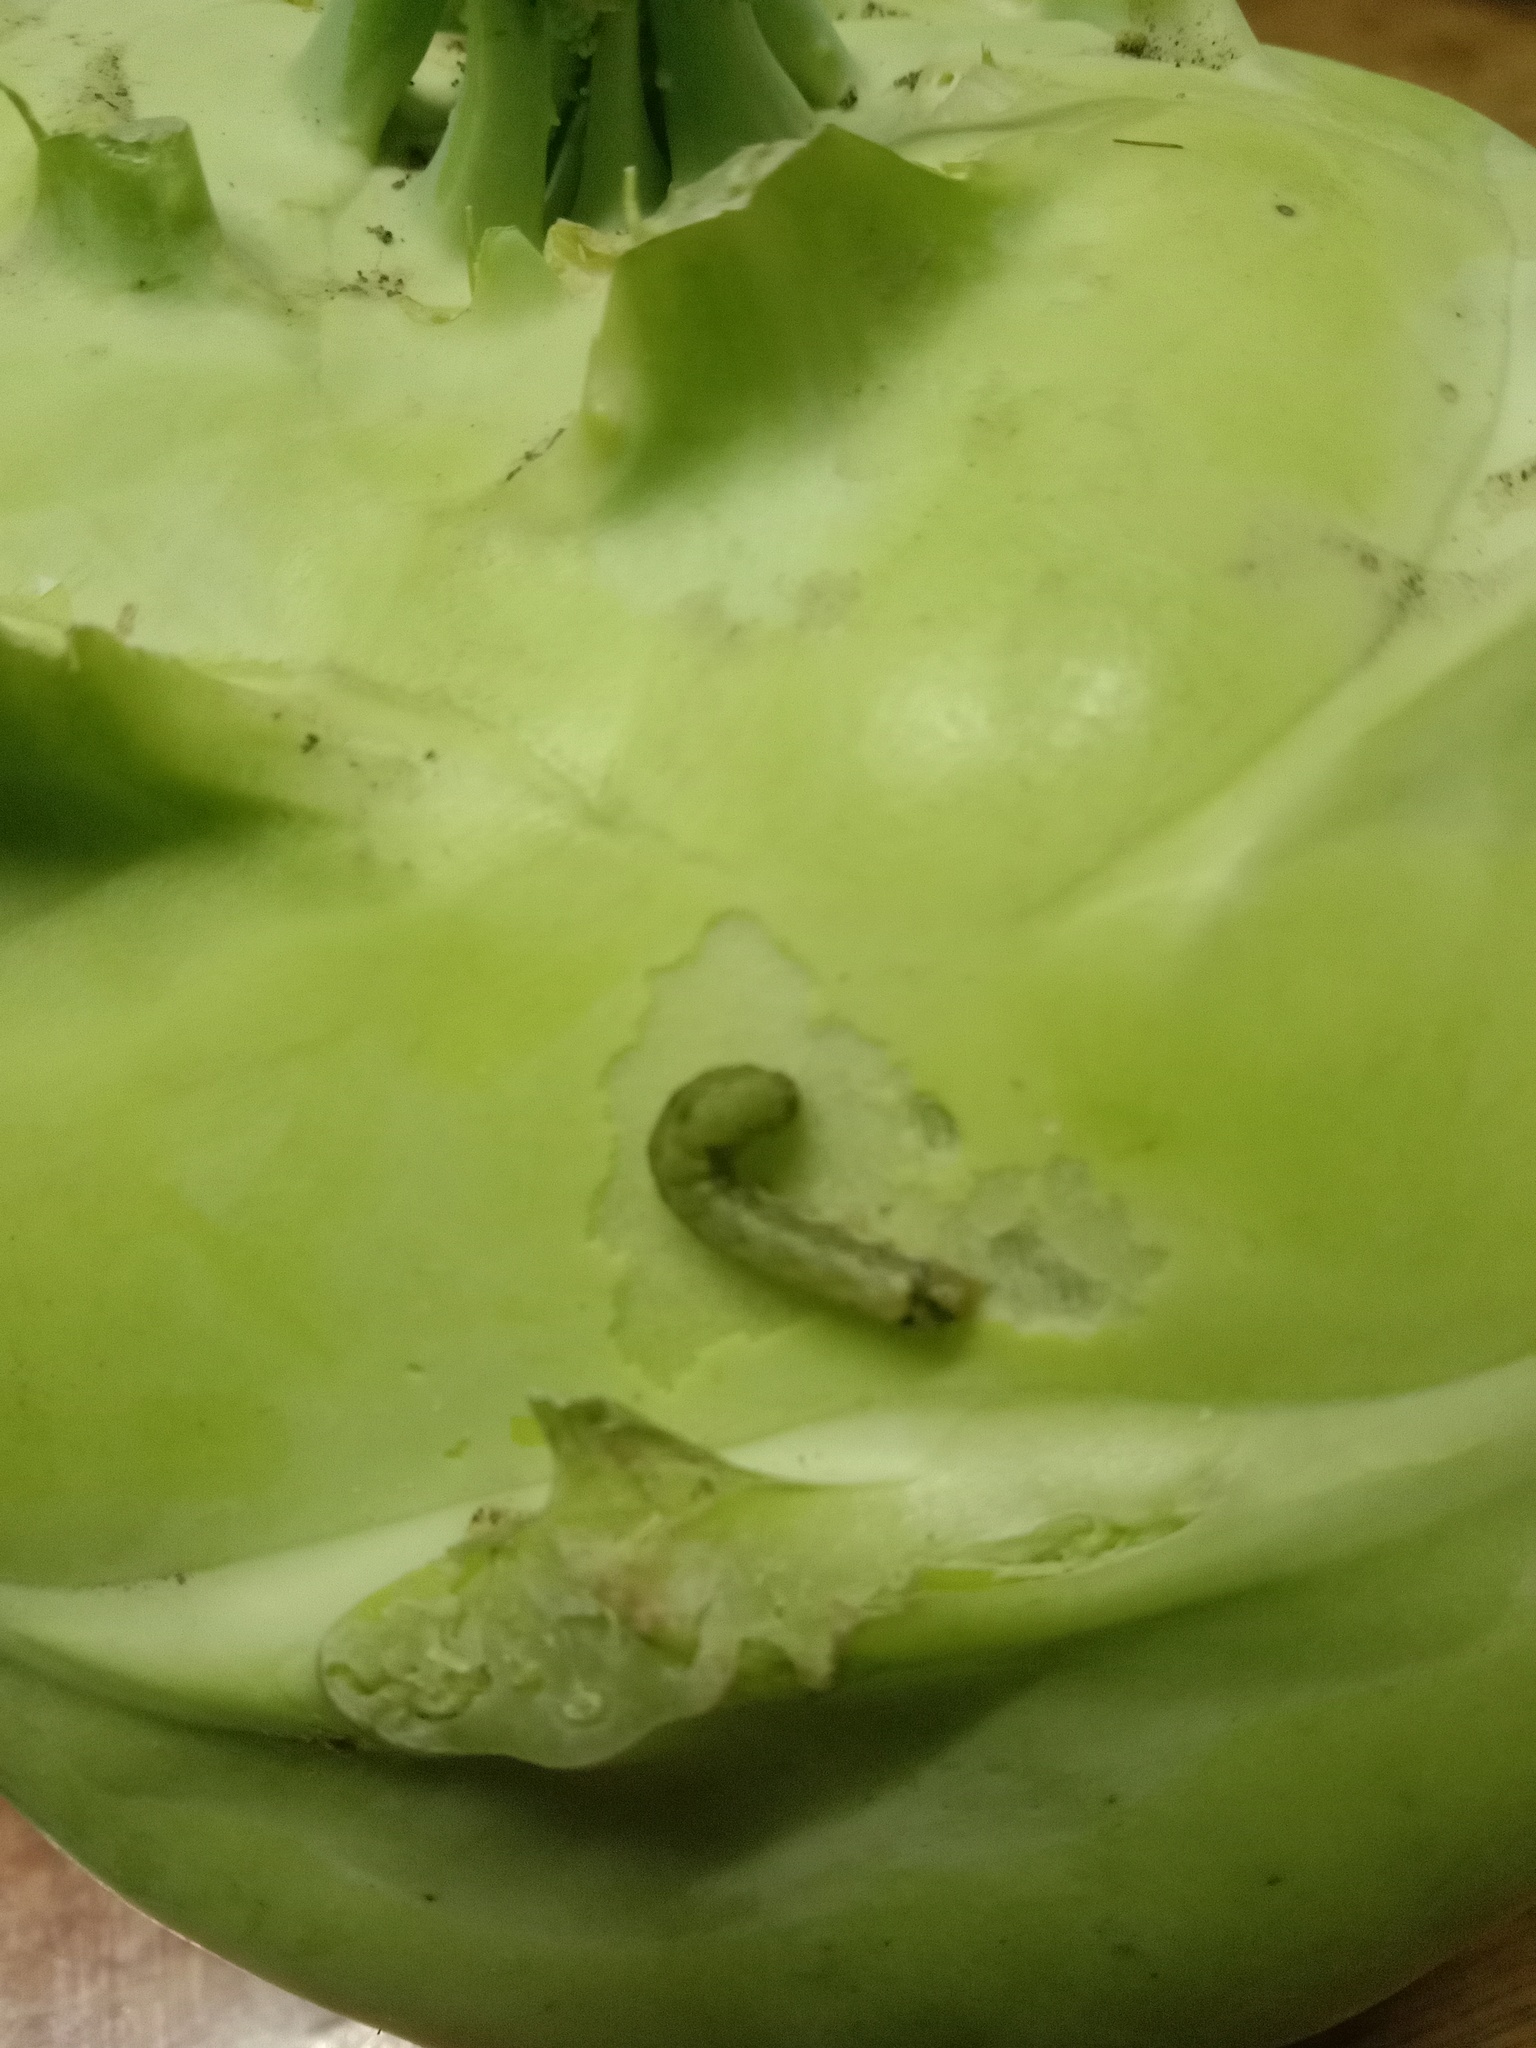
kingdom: Animalia
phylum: Arthropoda
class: Insecta
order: Lepidoptera
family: Noctuidae
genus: Spodoptera
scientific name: Spodoptera litura
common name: Asian cotton leafworm
